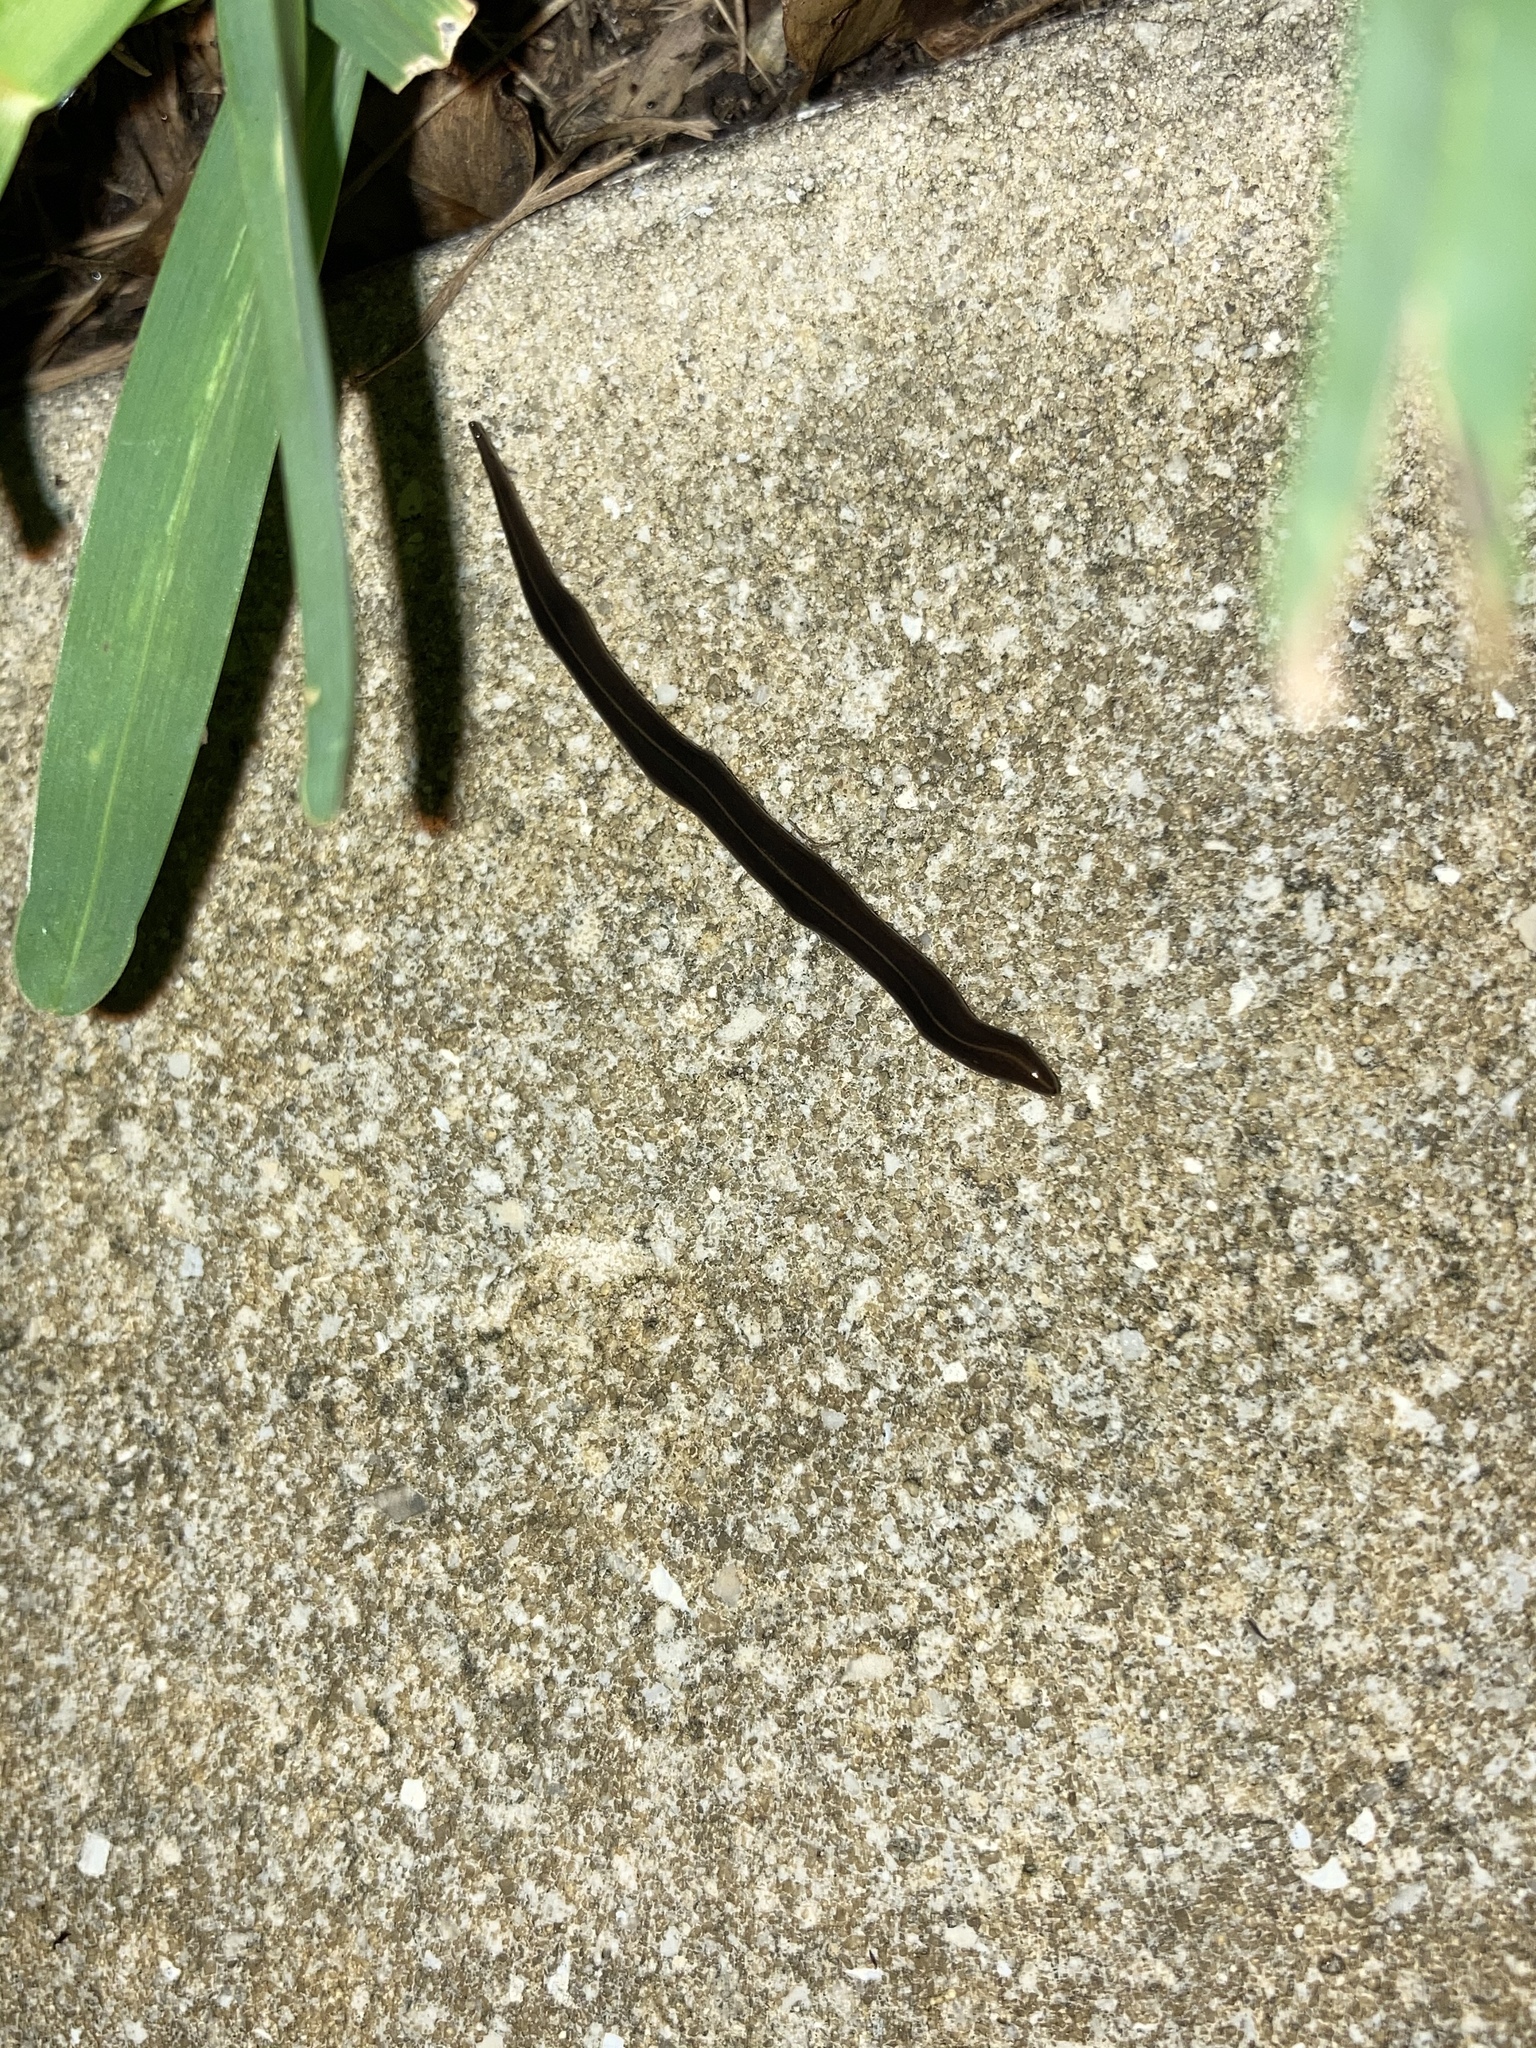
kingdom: Animalia
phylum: Platyhelminthes
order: Tricladida
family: Geoplanidae
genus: Platydemus
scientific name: Platydemus manokwari
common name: New guinea flatworm
